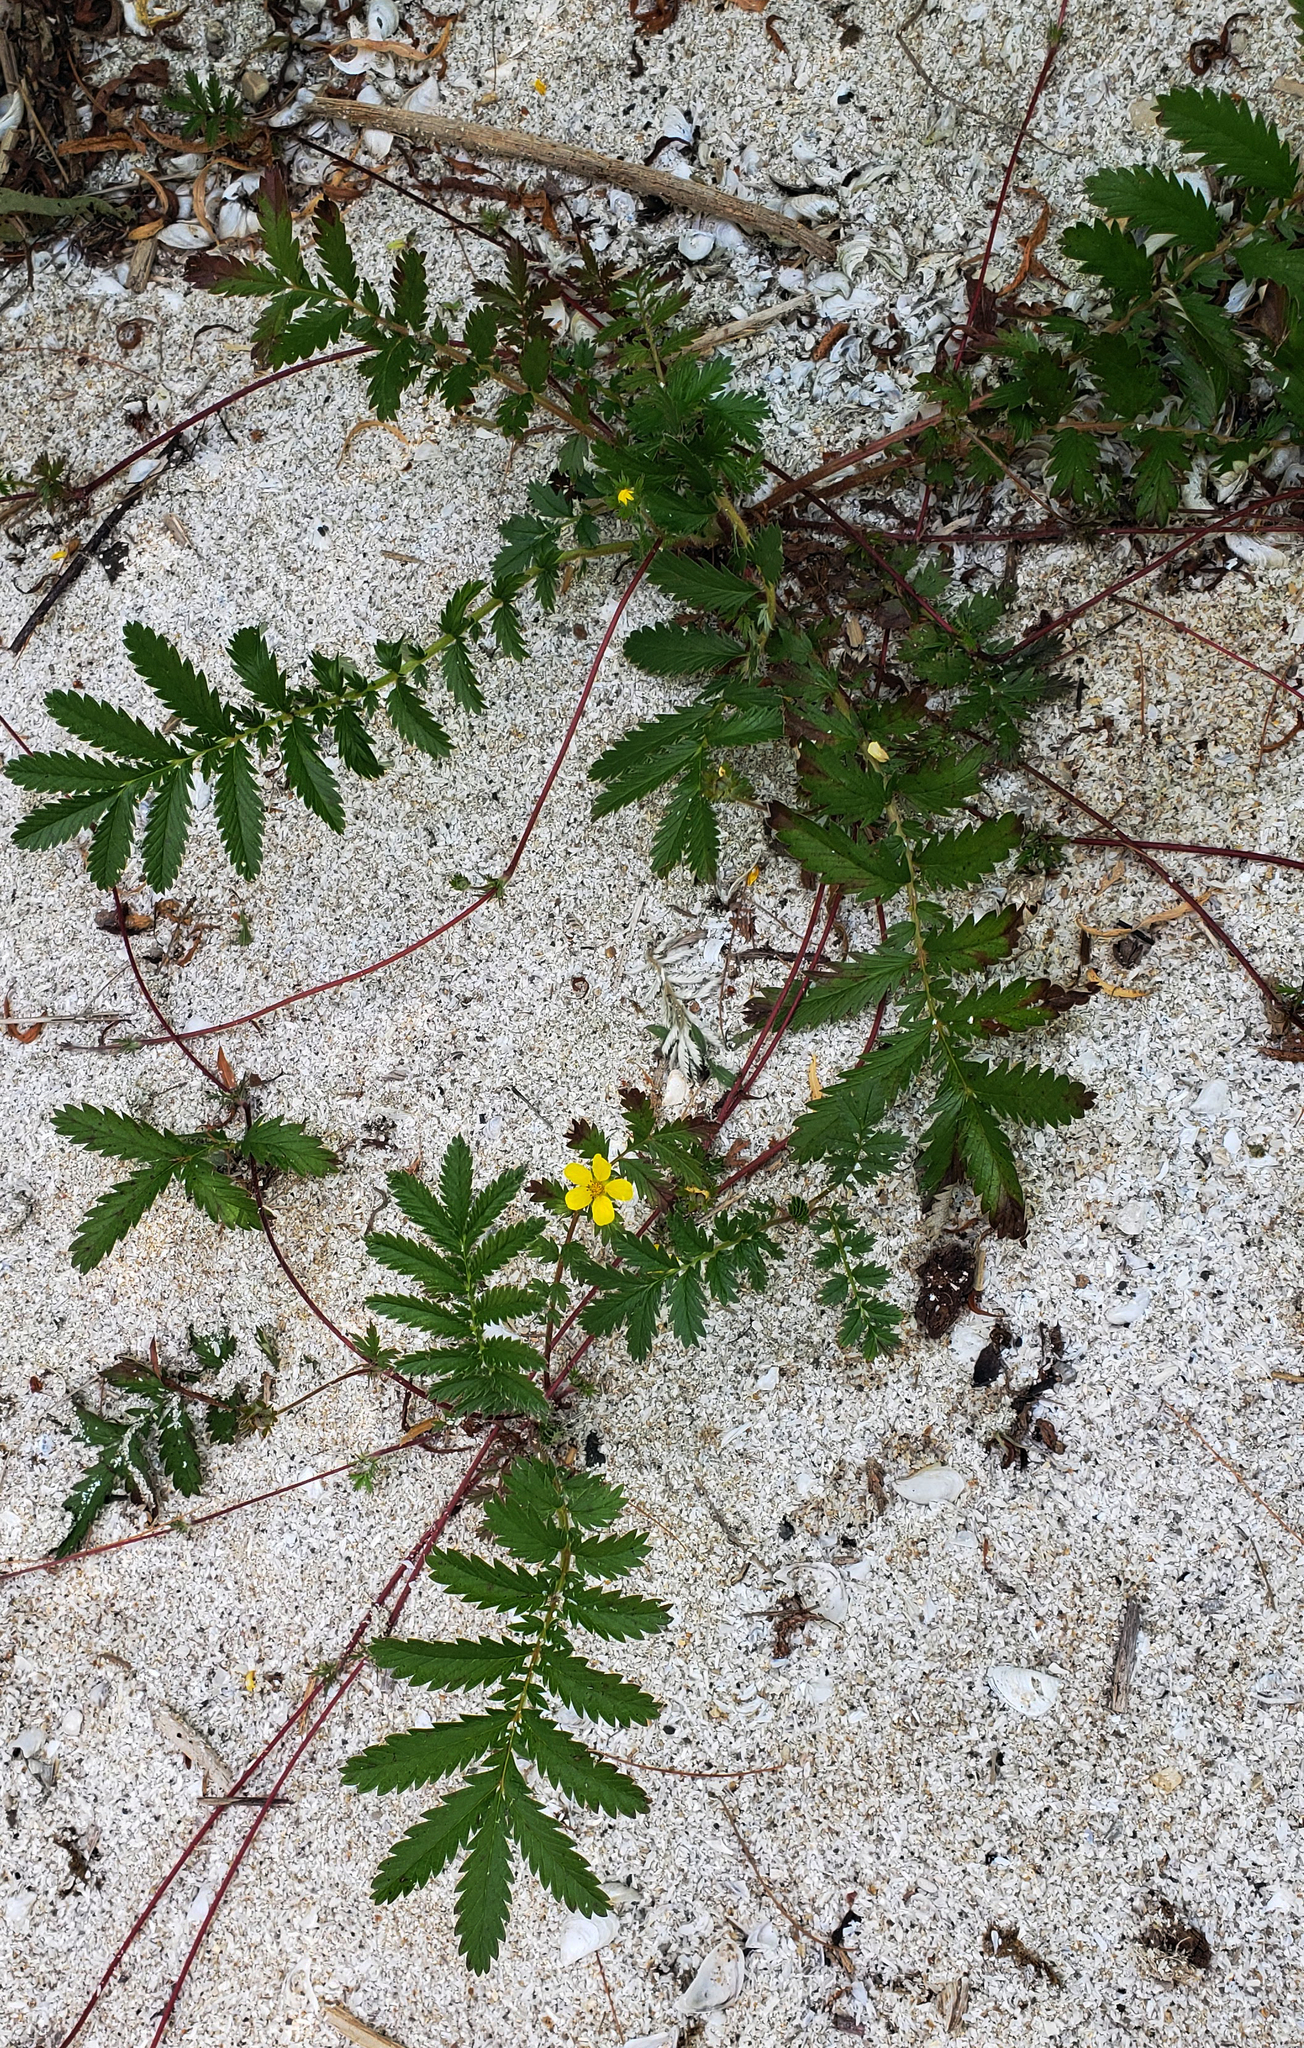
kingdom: Plantae
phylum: Tracheophyta
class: Magnoliopsida
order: Rosales
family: Rosaceae
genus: Argentina
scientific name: Argentina anserina
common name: Common silverweed
